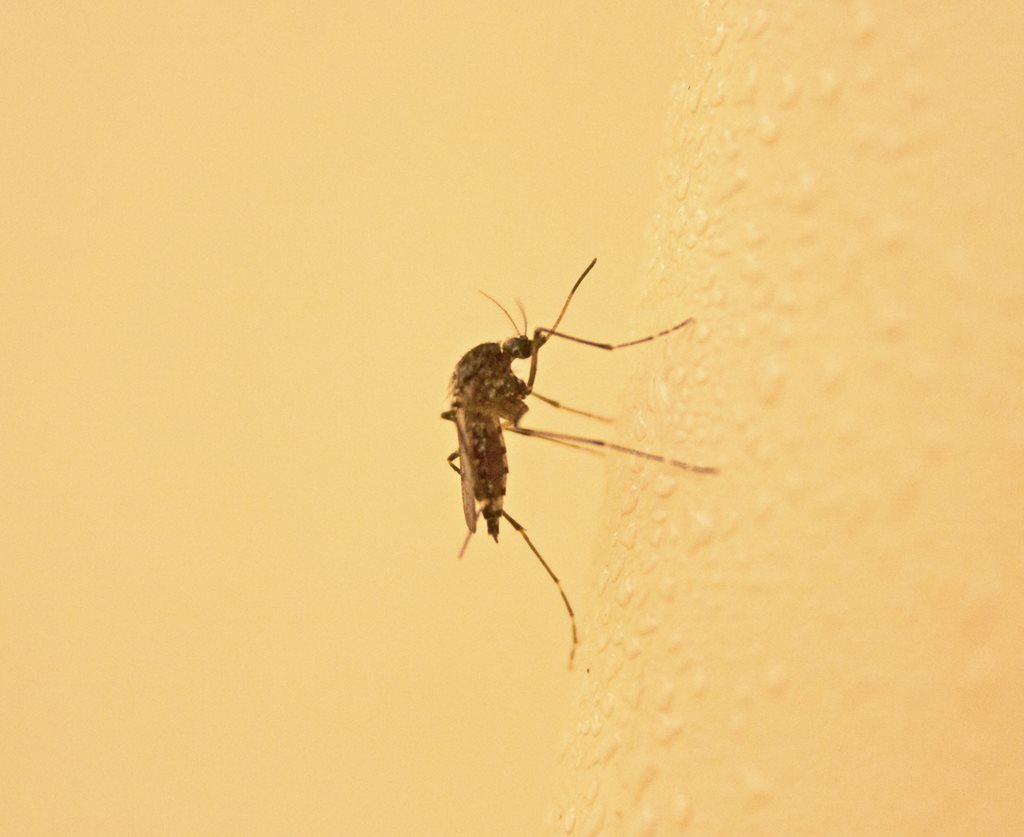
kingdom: Animalia
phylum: Arthropoda
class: Insecta
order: Diptera
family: Culicidae
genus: Aedes
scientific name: Aedes vigilax
